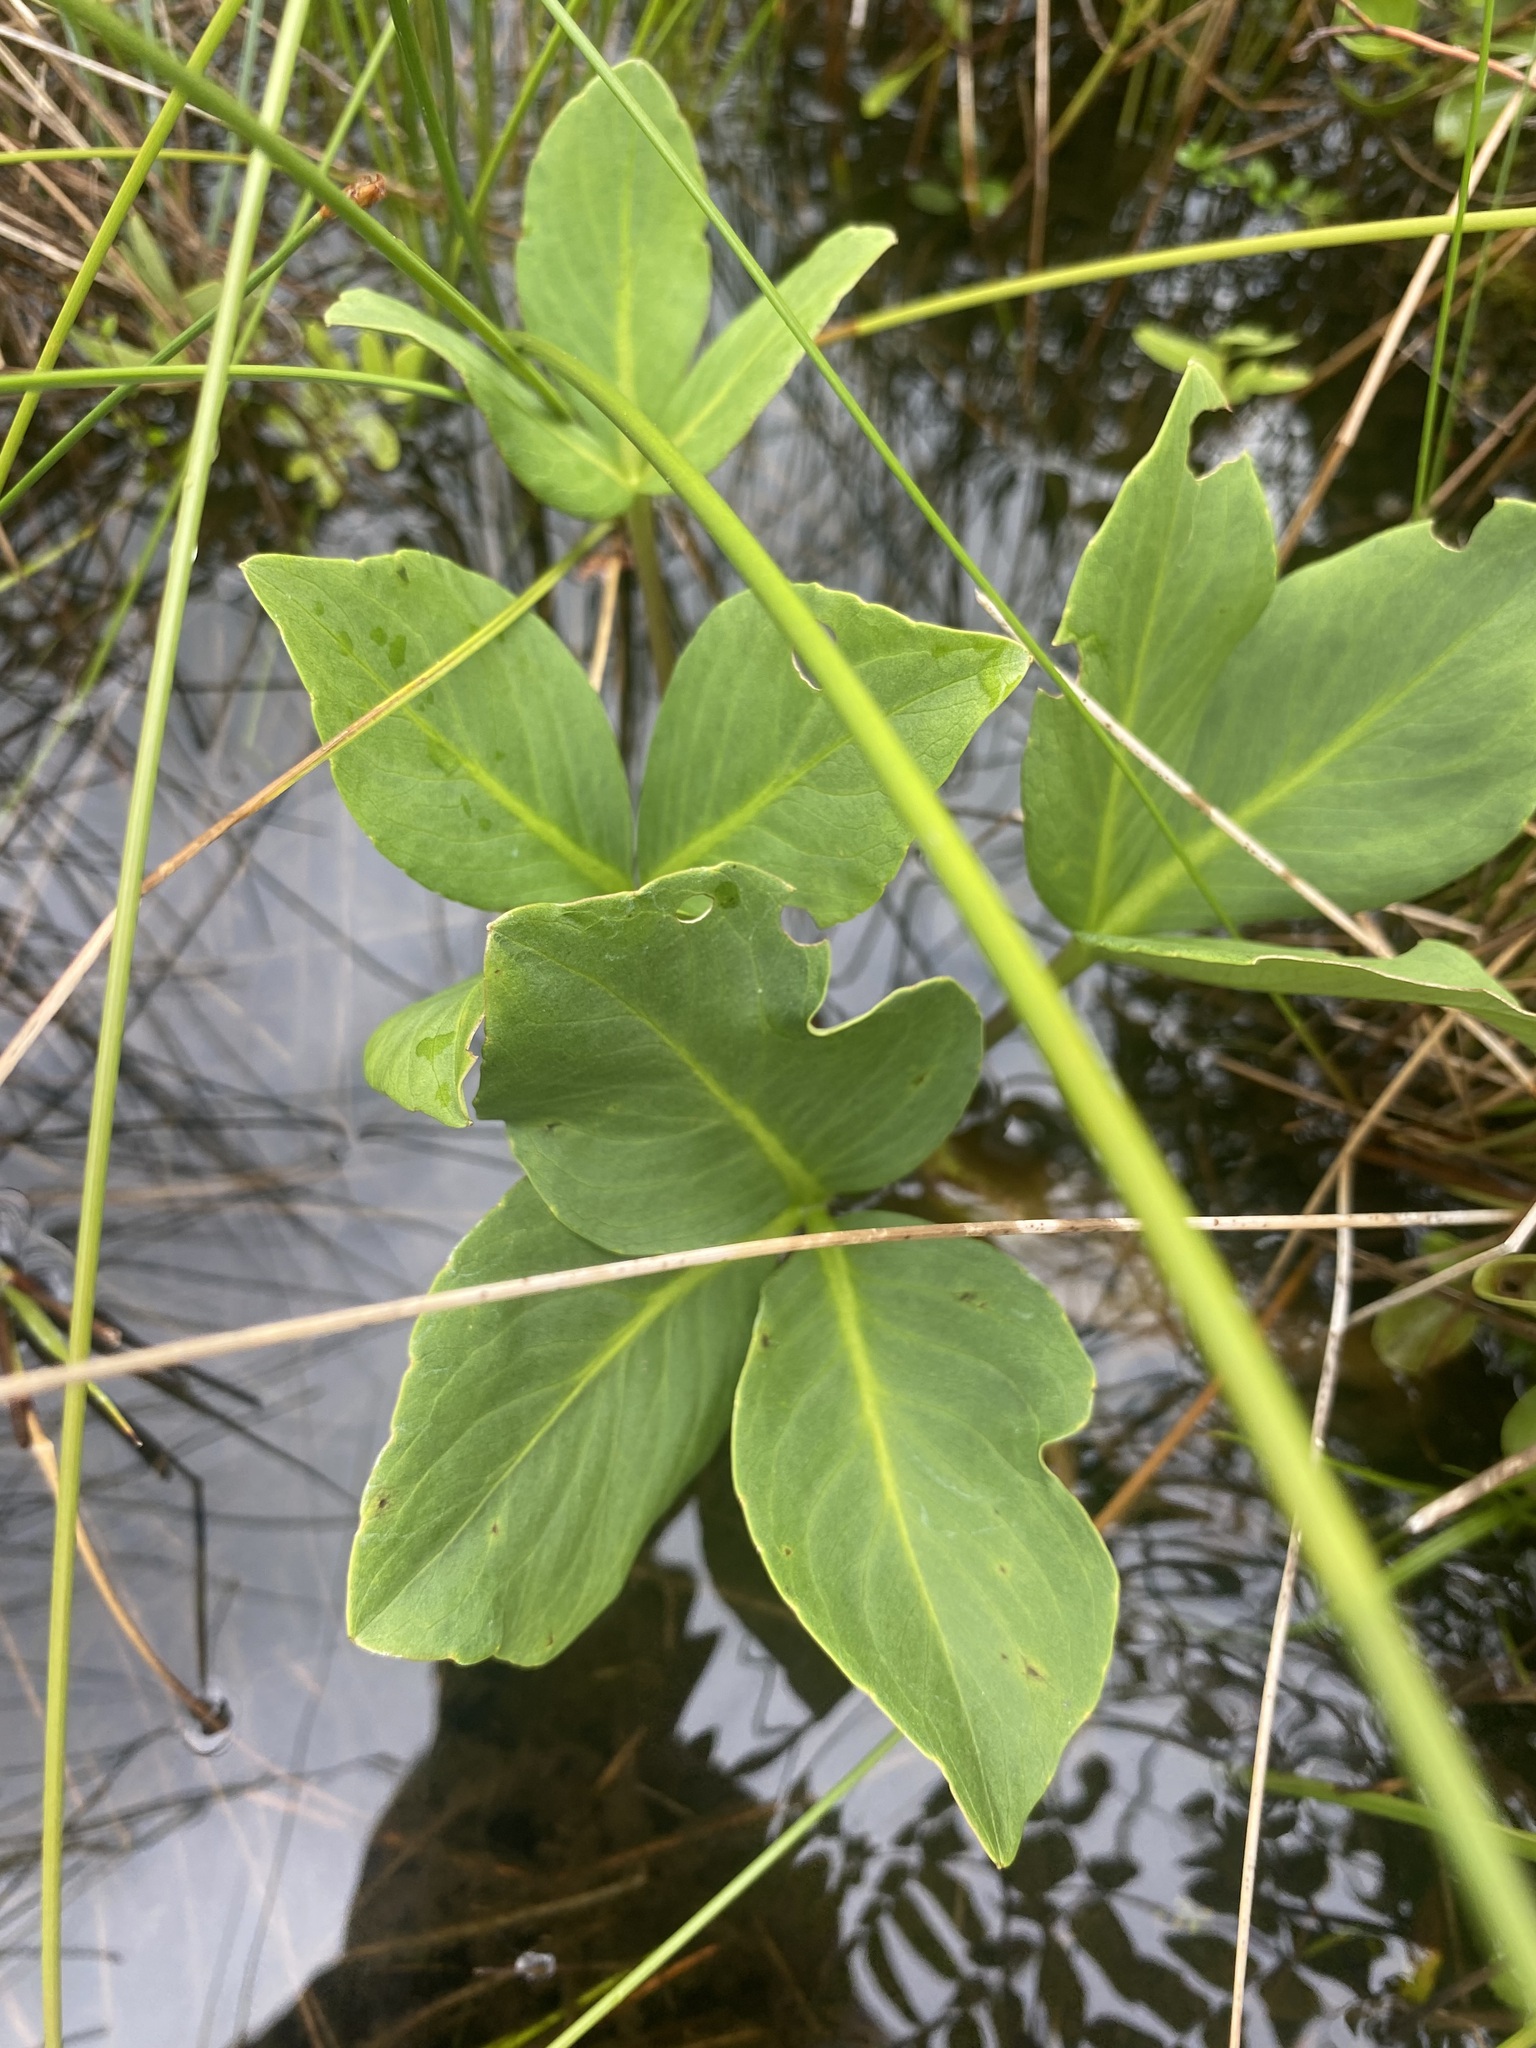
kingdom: Plantae
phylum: Tracheophyta
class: Magnoliopsida
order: Asterales
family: Menyanthaceae
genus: Menyanthes
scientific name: Menyanthes trifoliata
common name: Bogbean
